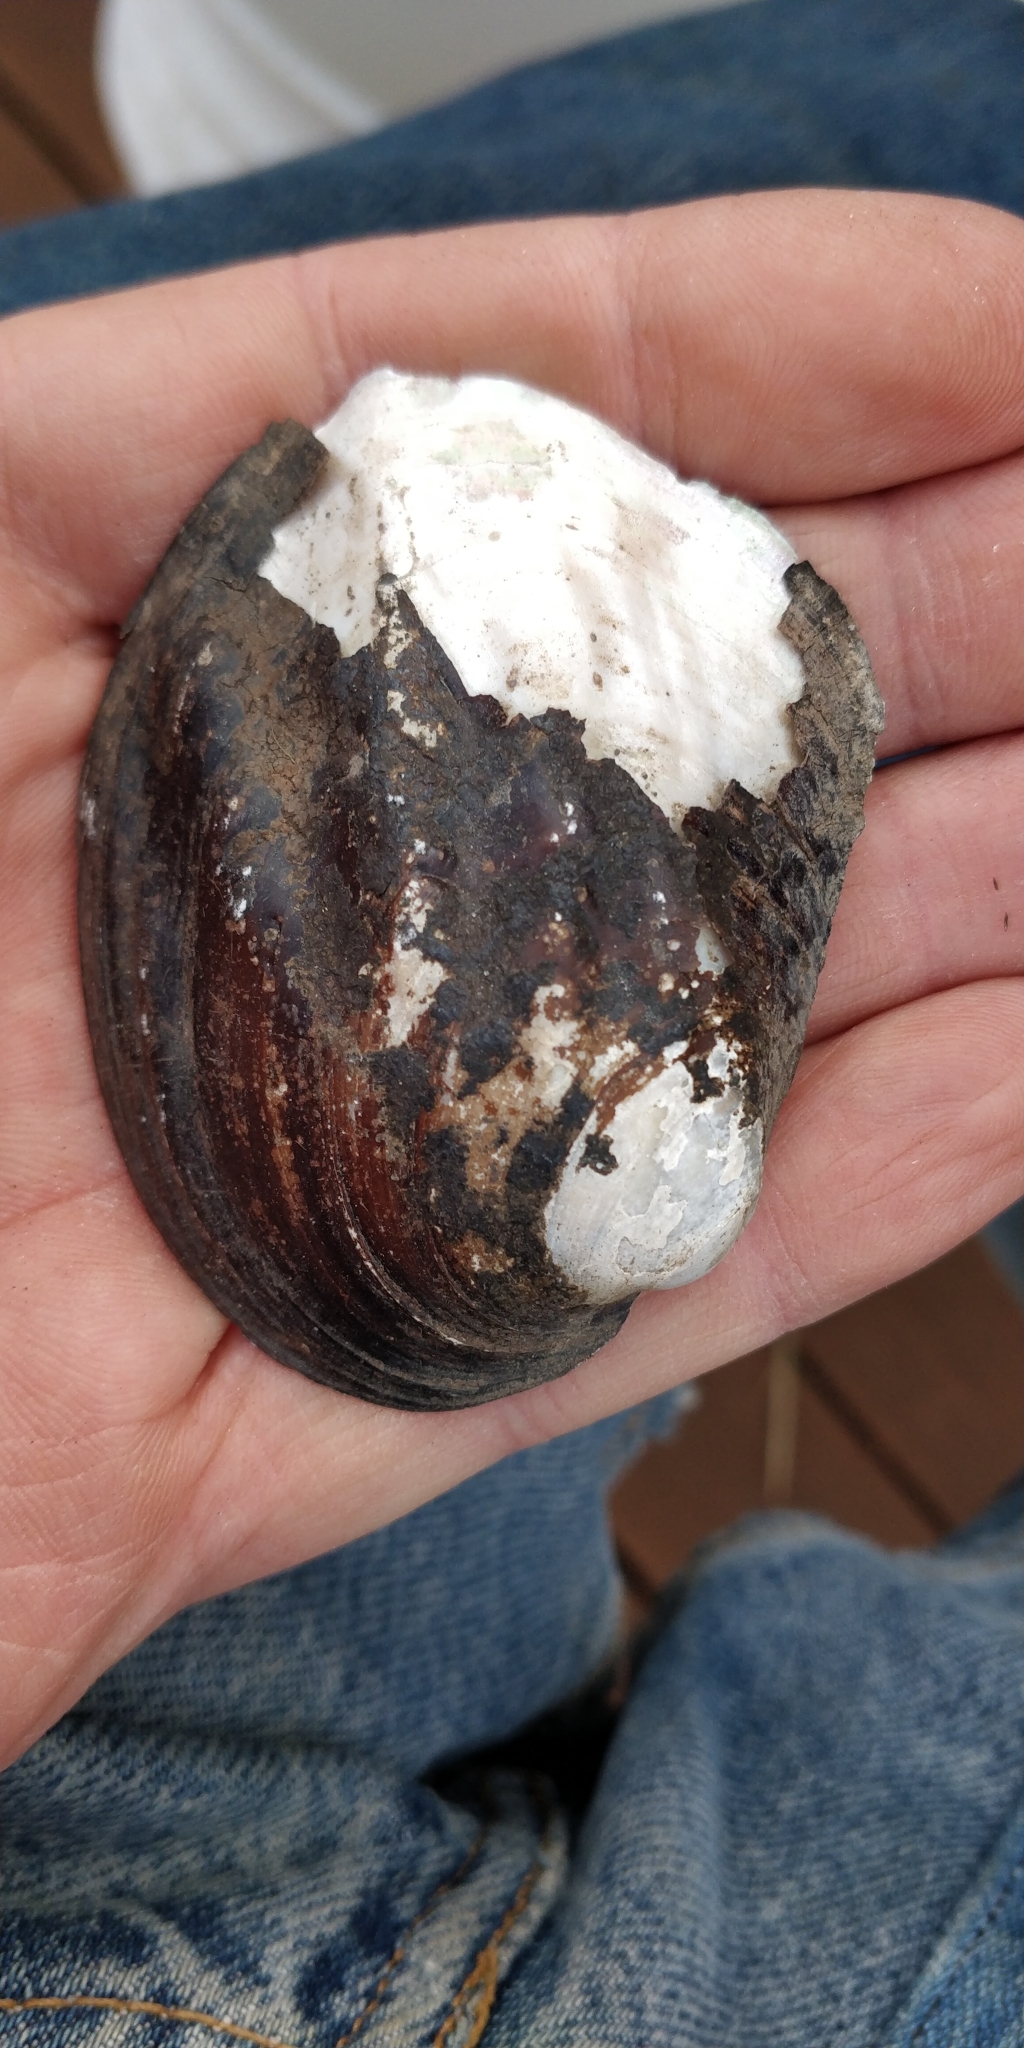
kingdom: Animalia
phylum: Mollusca
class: Bivalvia
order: Unionida
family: Unionidae
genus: Amblema
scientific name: Amblema plicata
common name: Threeridge
